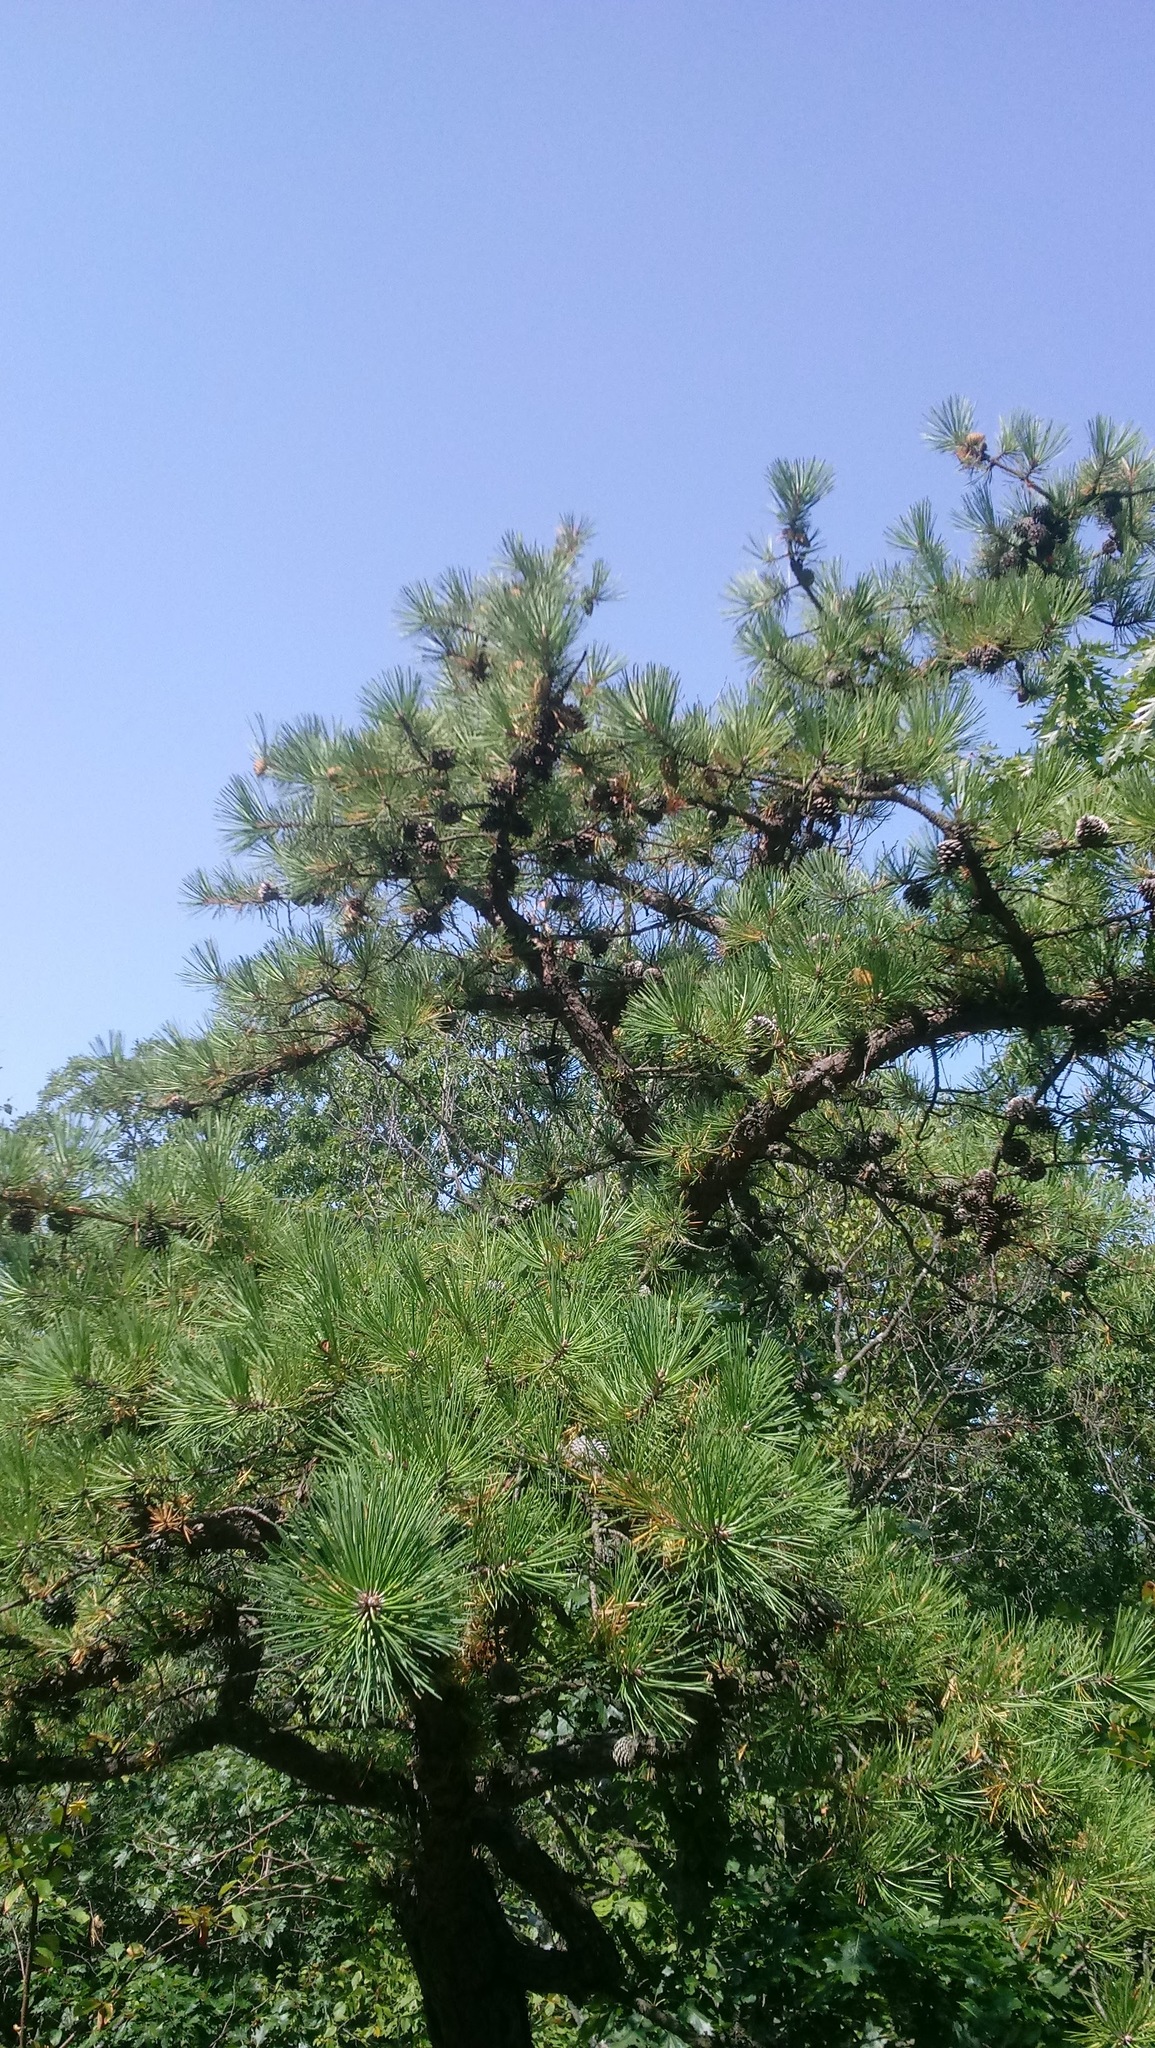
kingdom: Plantae
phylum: Tracheophyta
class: Pinopsida
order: Pinales
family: Pinaceae
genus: Pinus
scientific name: Pinus rigida
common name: Pitch pine
